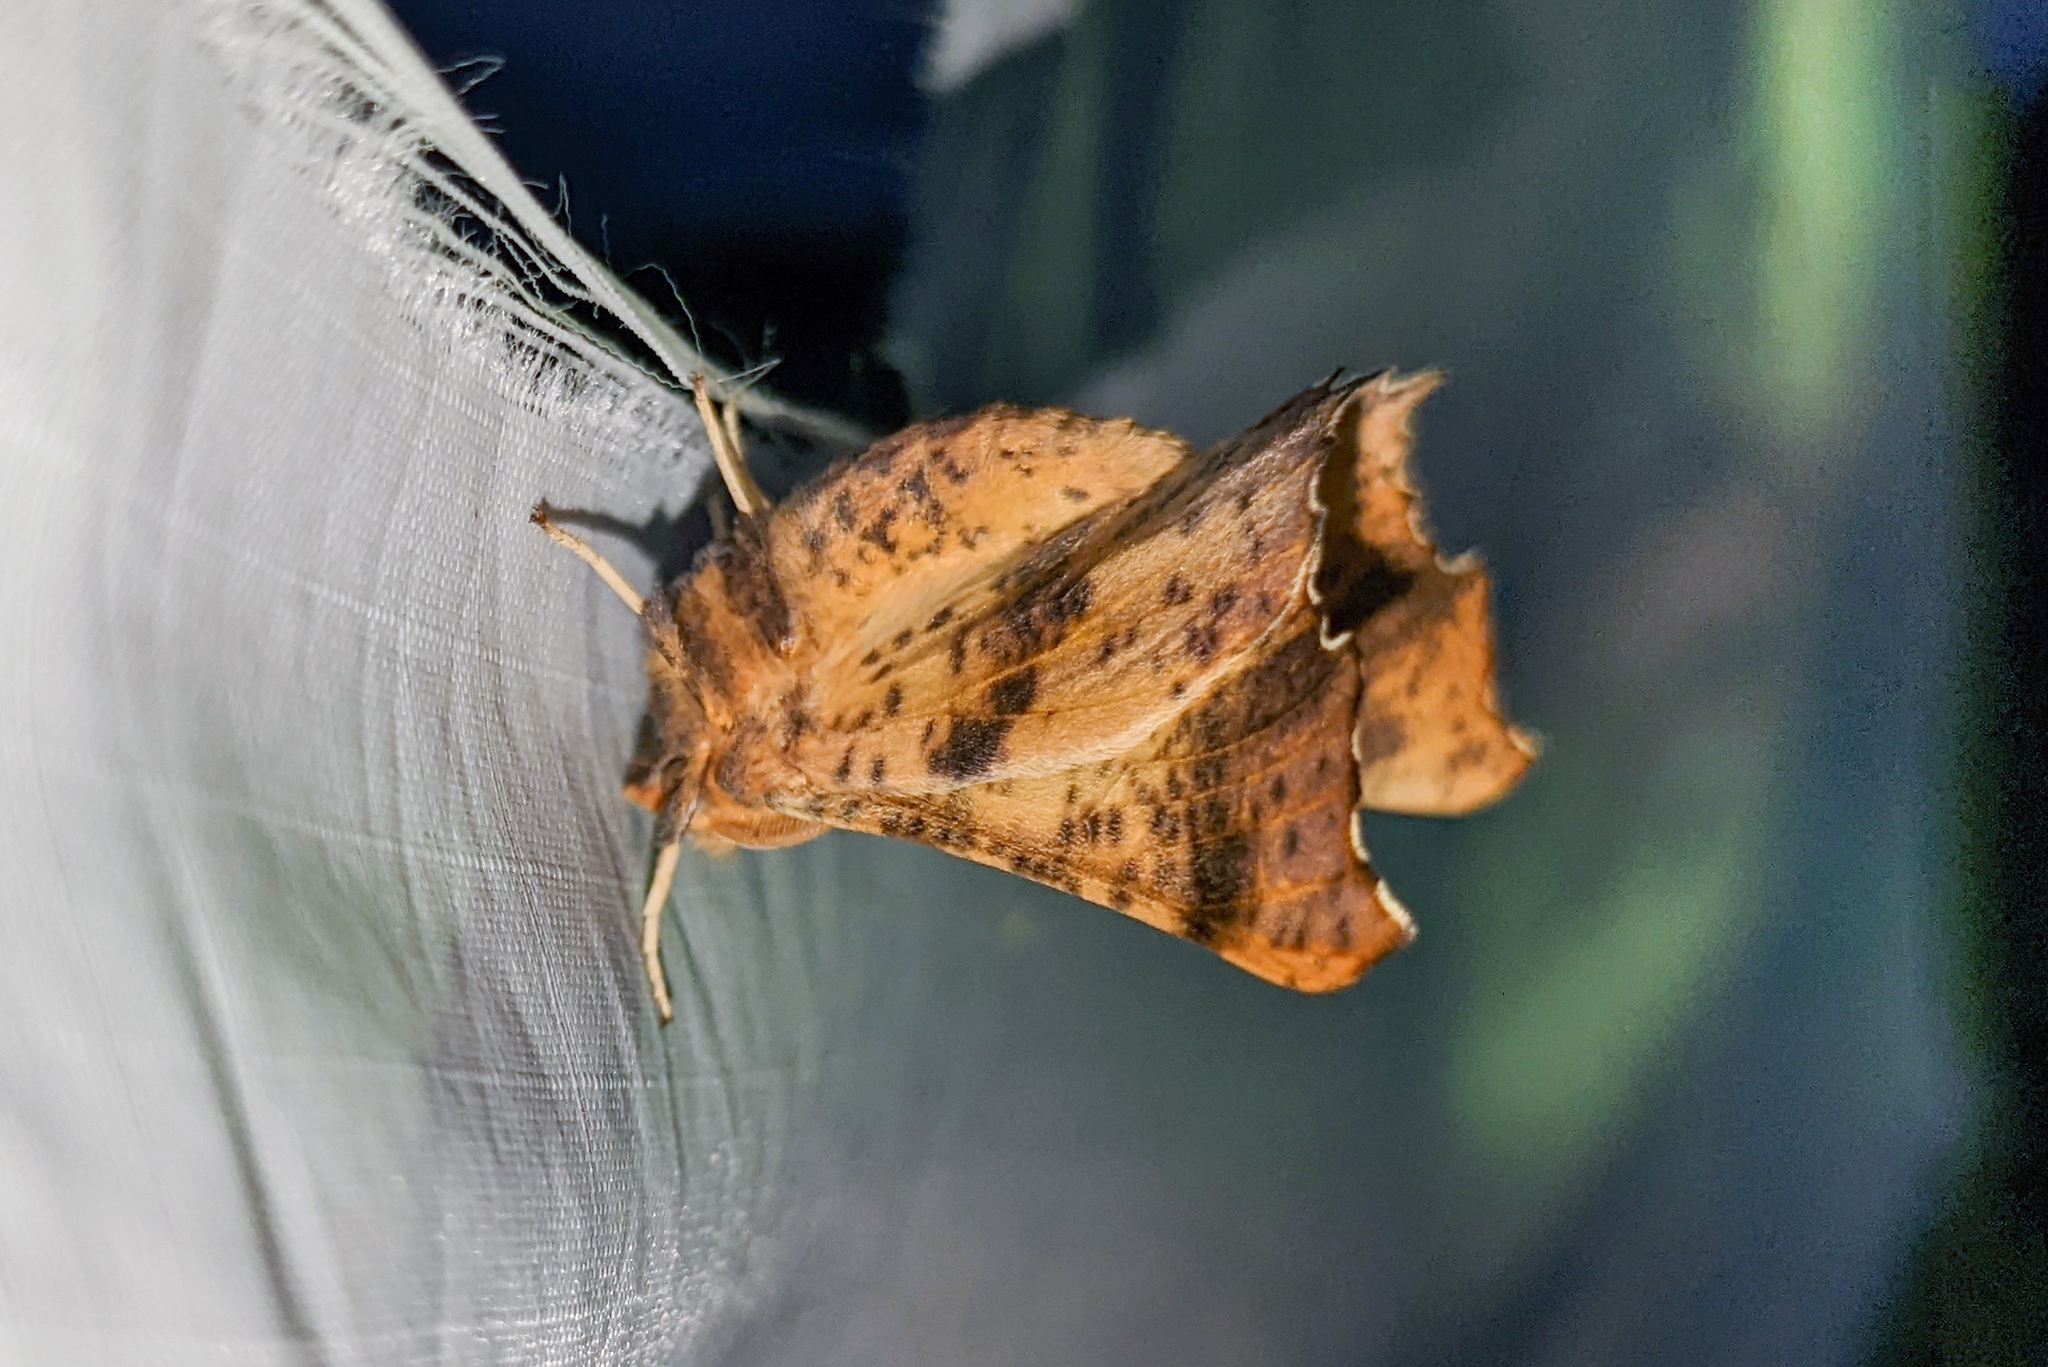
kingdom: Animalia
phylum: Arthropoda
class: Insecta
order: Lepidoptera
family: Geometridae
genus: Ennomos
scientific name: Ennomos magnaria
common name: Maple spanworm
